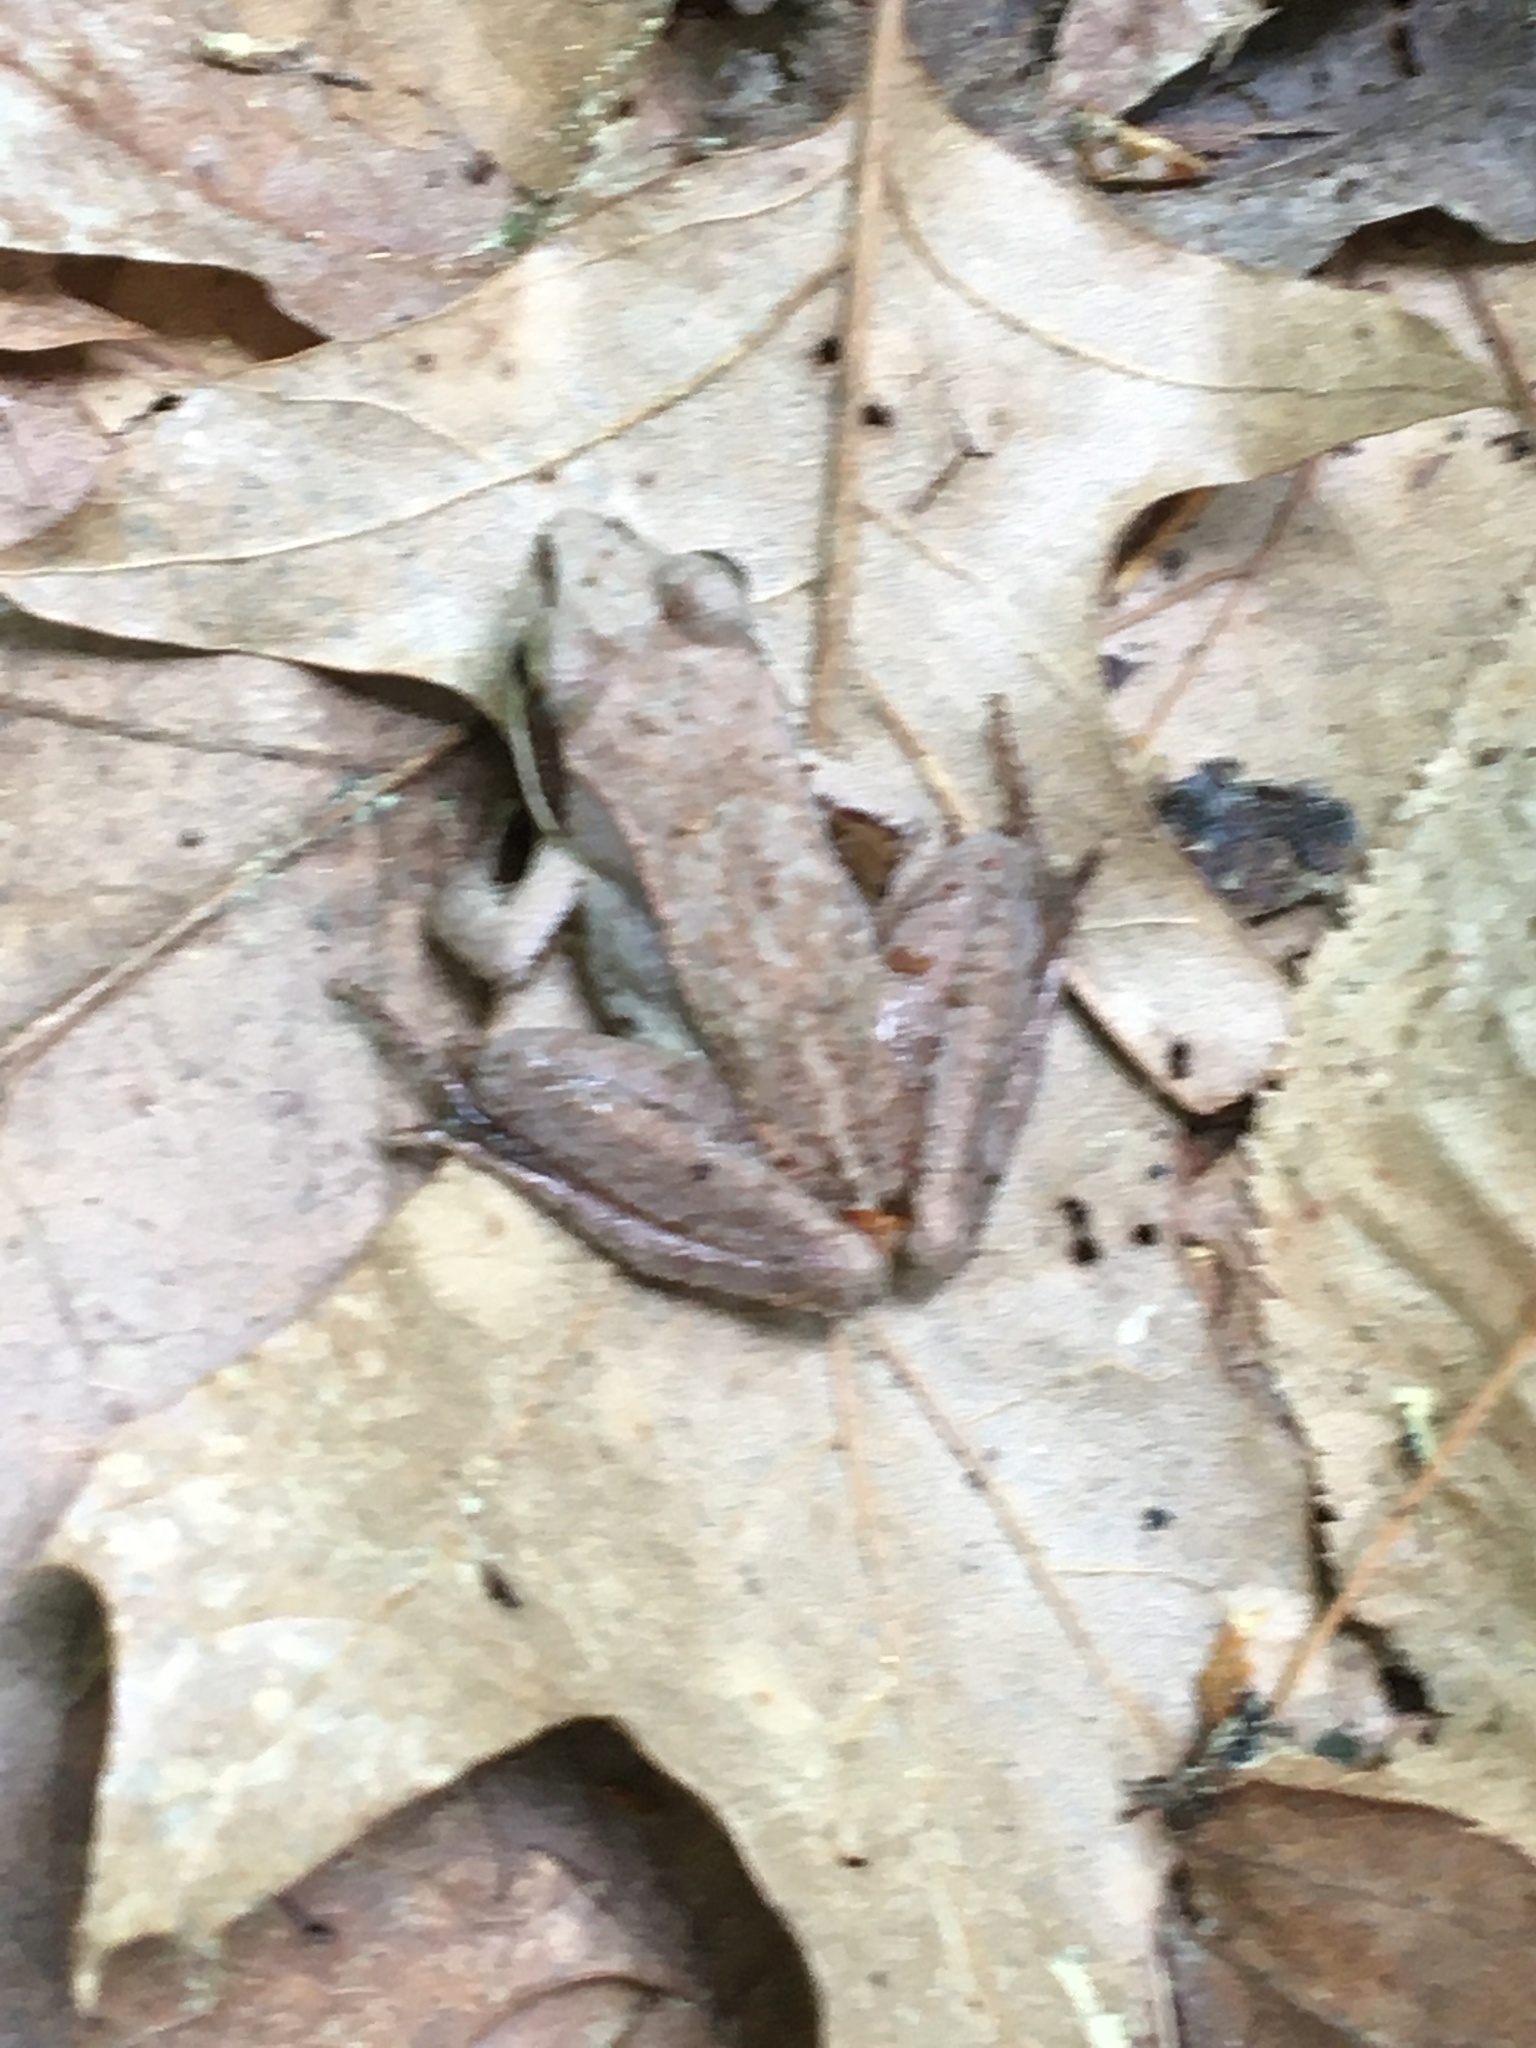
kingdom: Animalia
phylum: Chordata
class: Amphibia
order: Anura
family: Ranidae
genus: Lithobates
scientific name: Lithobates sylvaticus
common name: Wood frog
